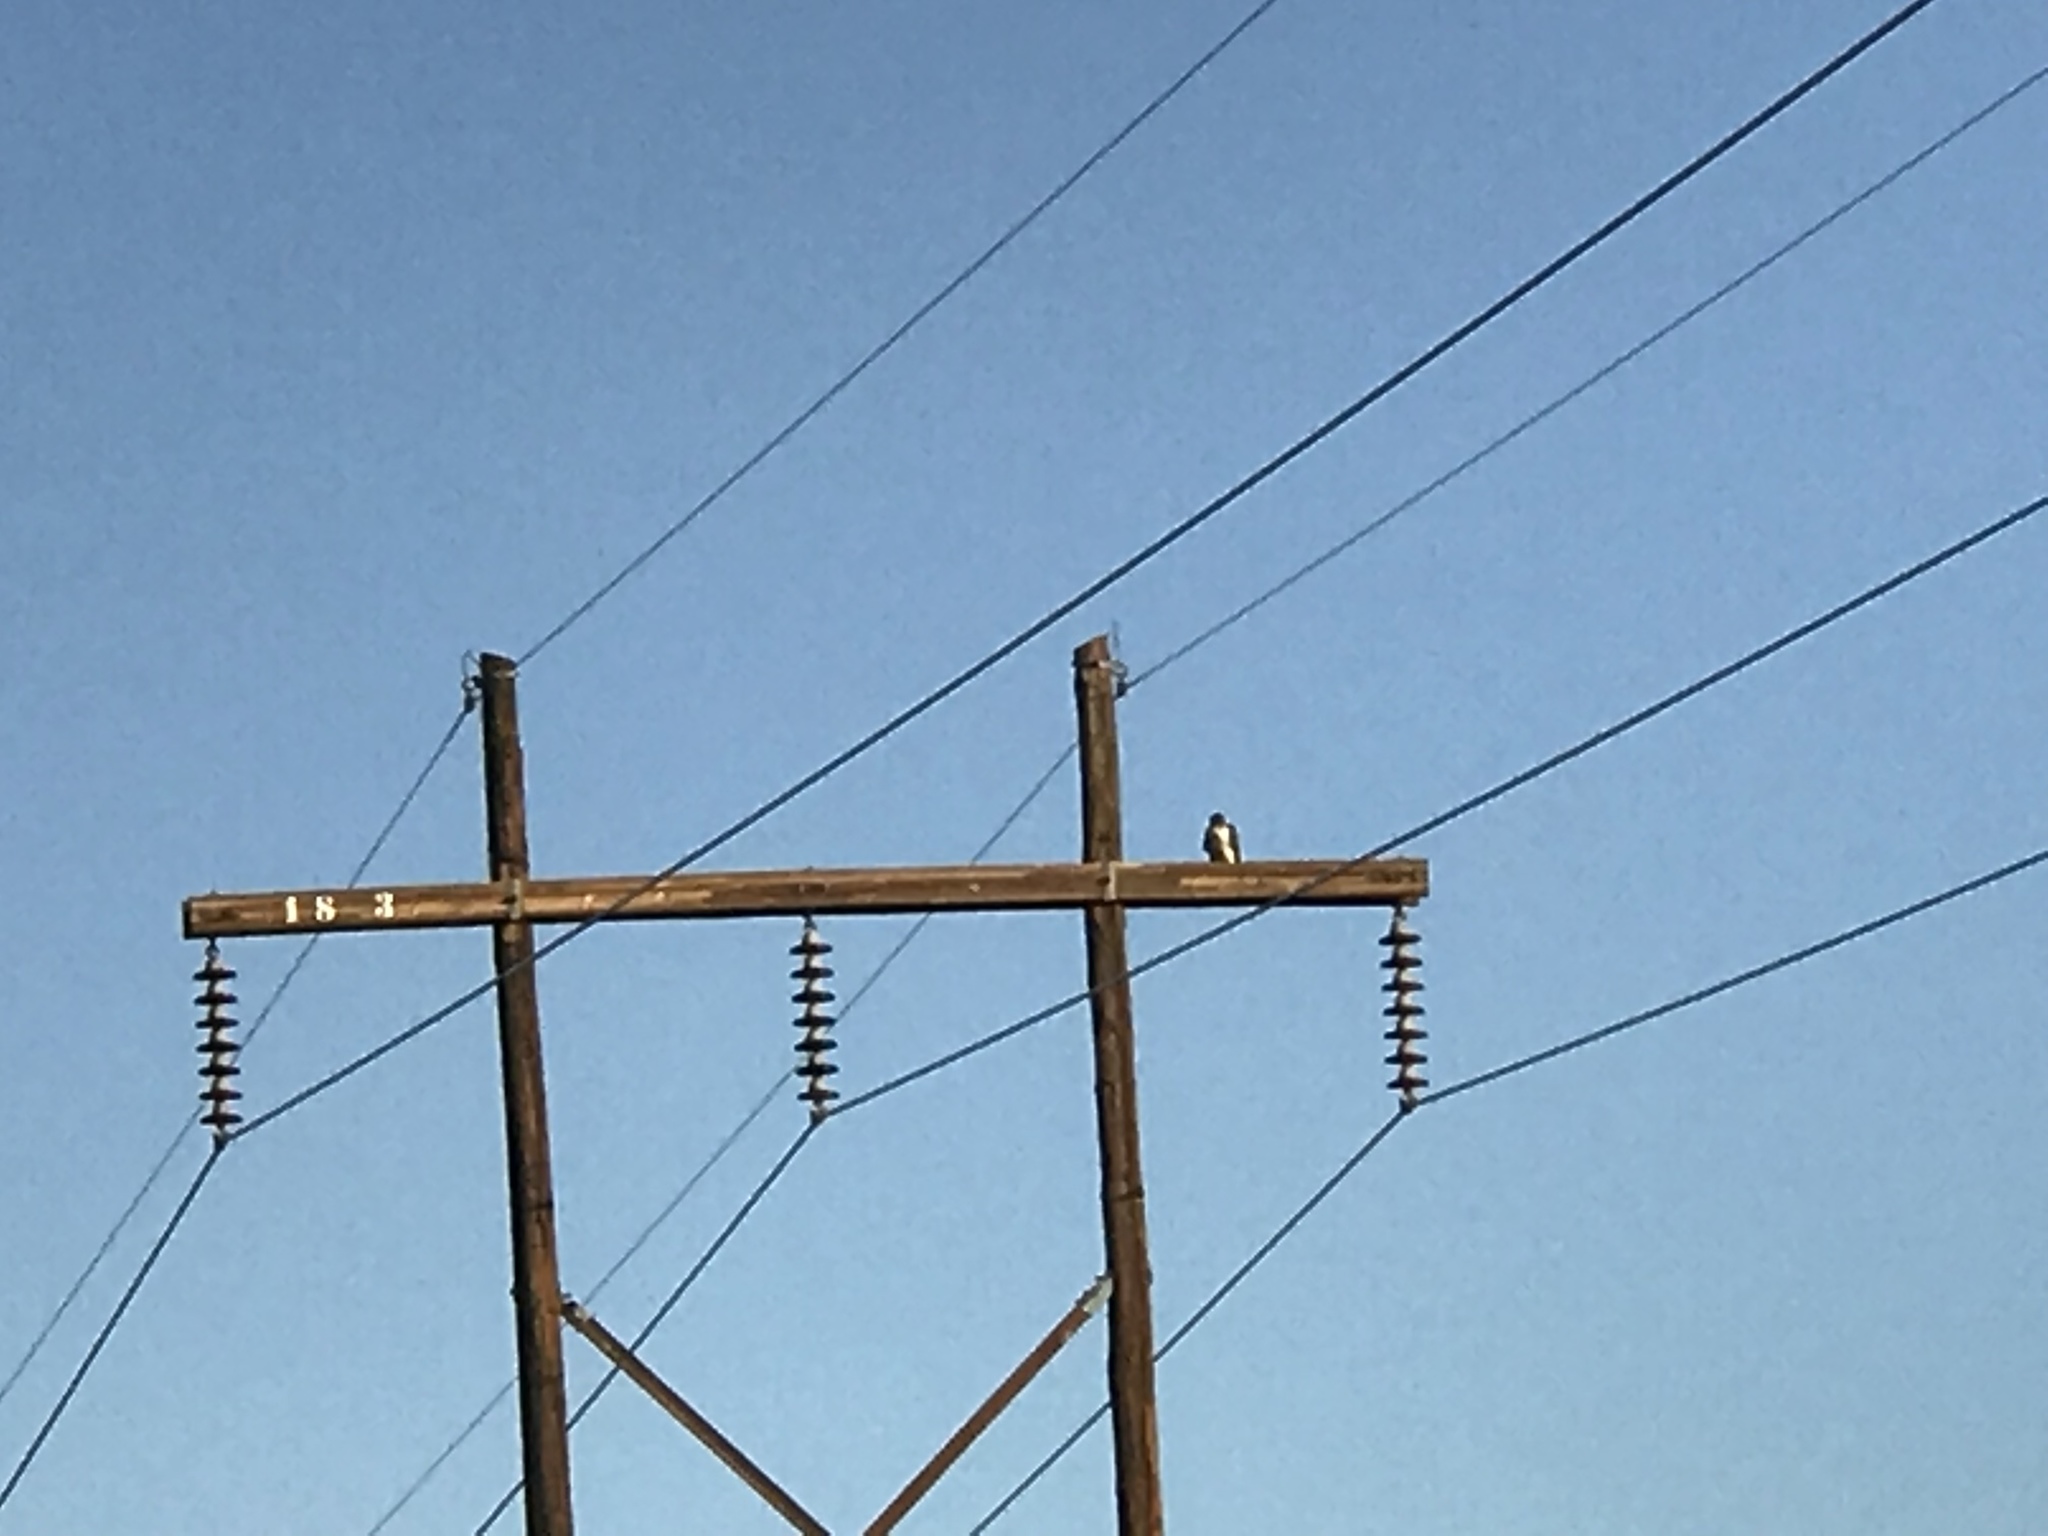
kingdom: Animalia
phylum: Chordata
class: Aves
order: Accipitriformes
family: Accipitridae
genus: Buteo
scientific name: Buteo jamaicensis
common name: Red-tailed hawk
